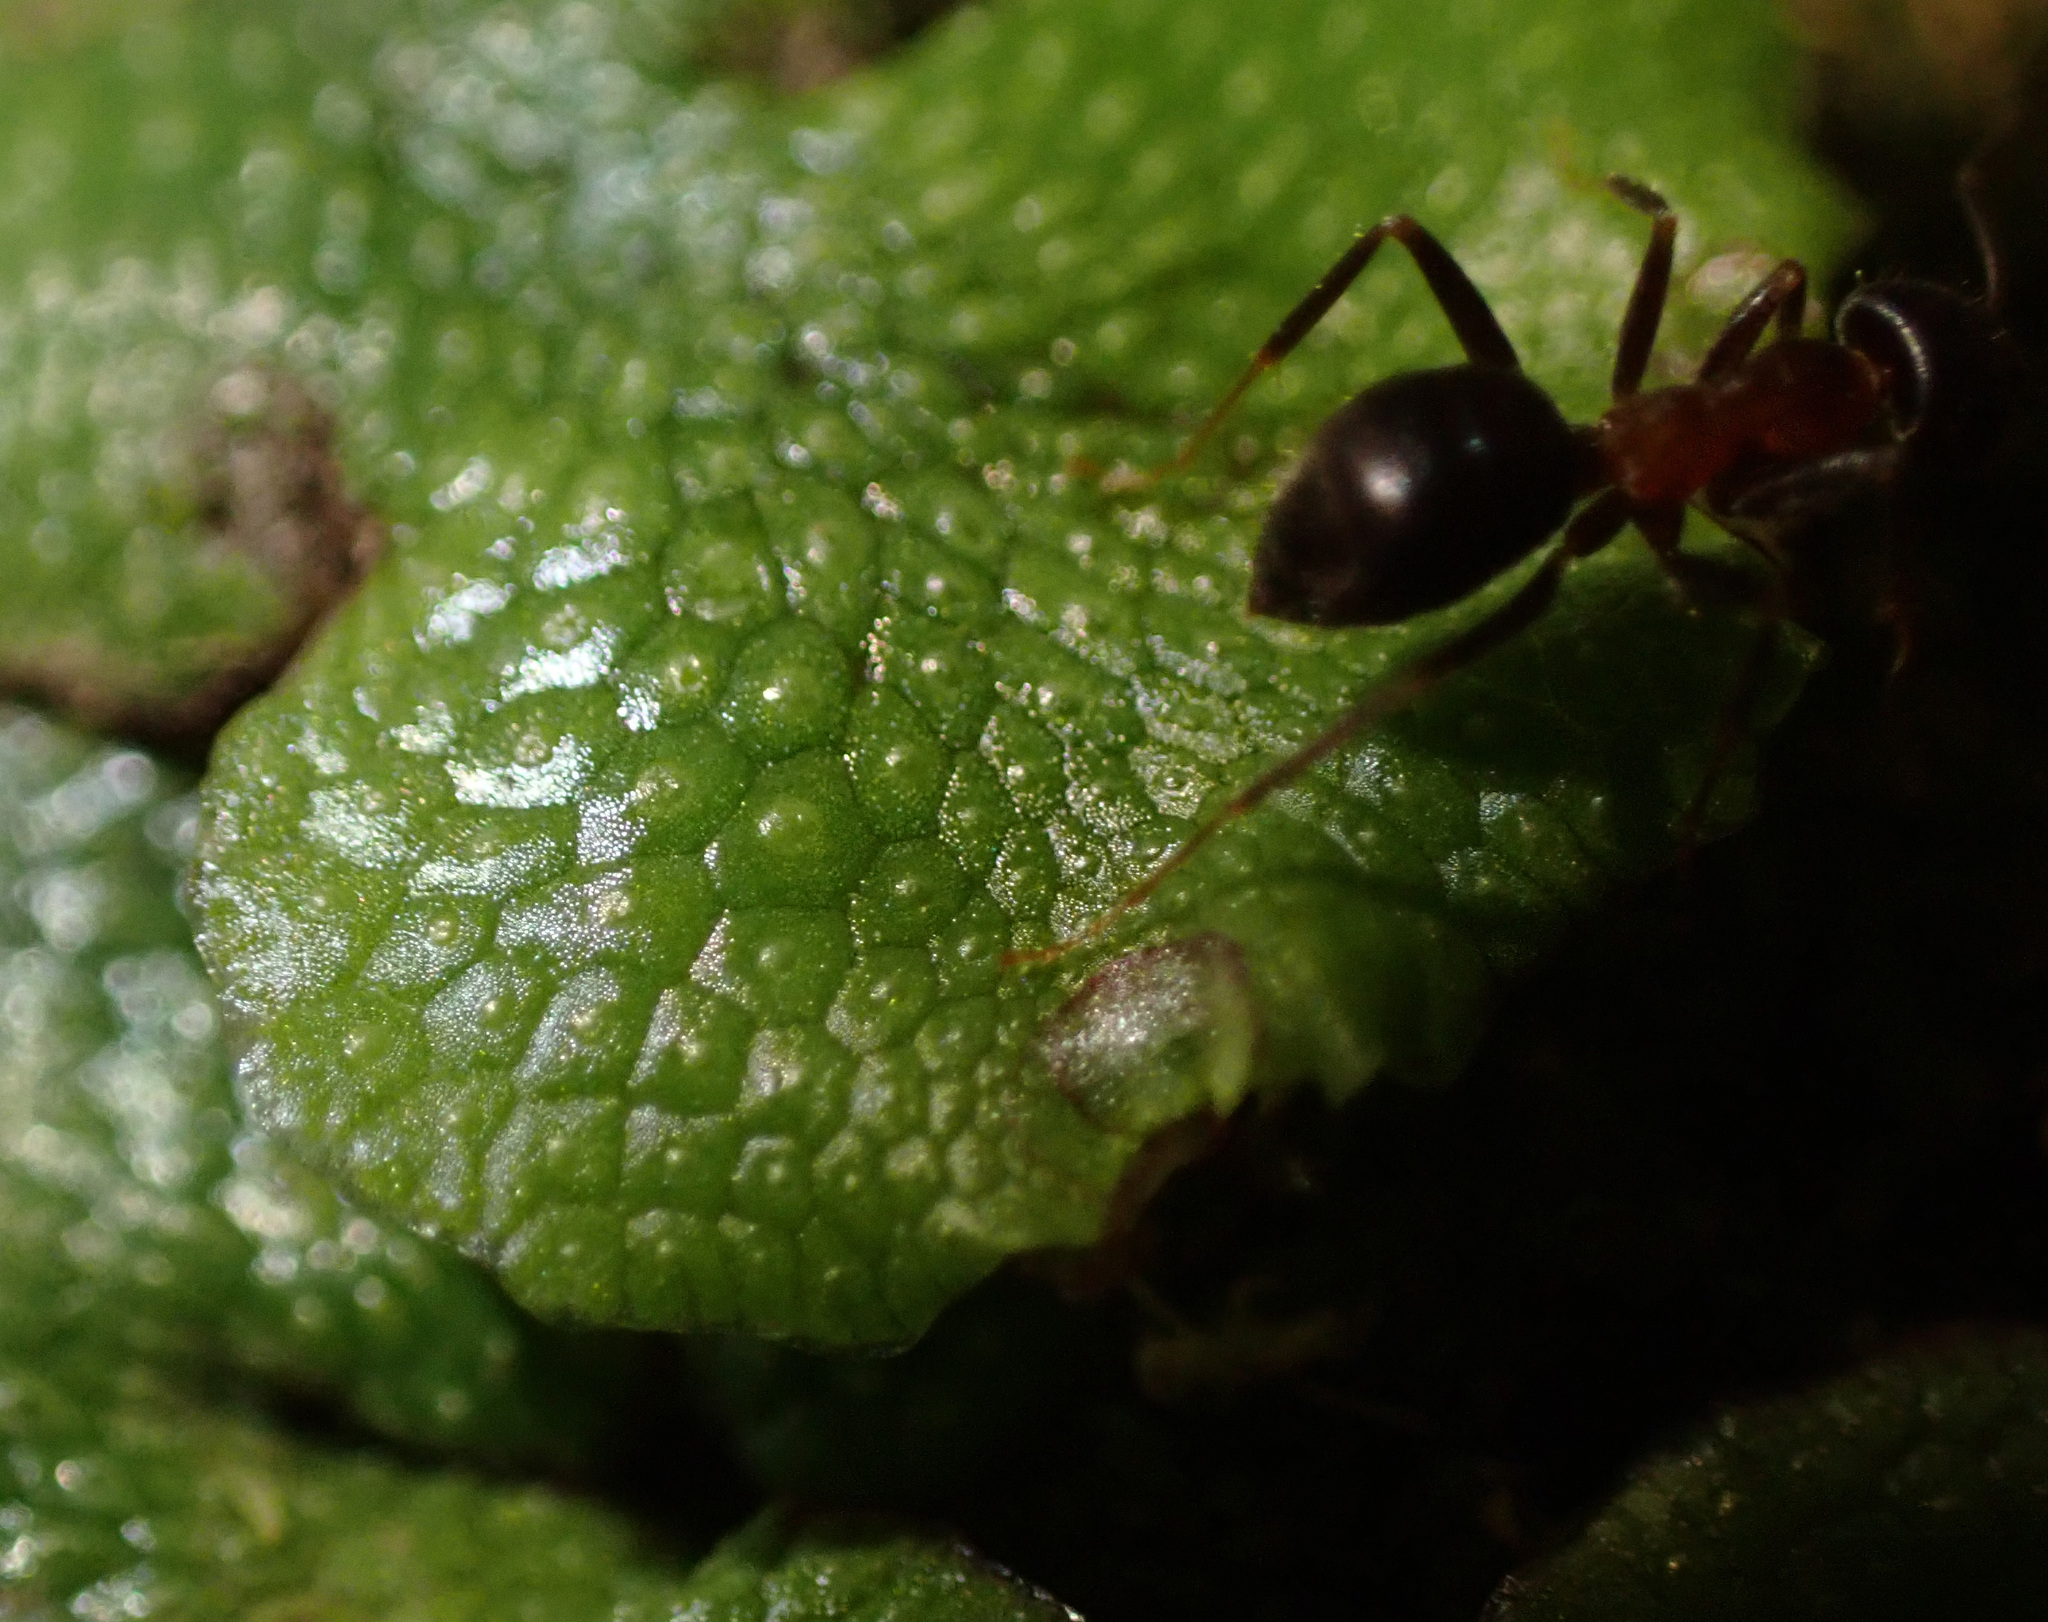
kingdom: Animalia
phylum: Arthropoda
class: Insecta
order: Hymenoptera
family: Formicidae
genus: Lasius
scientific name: Lasius emarginatus
